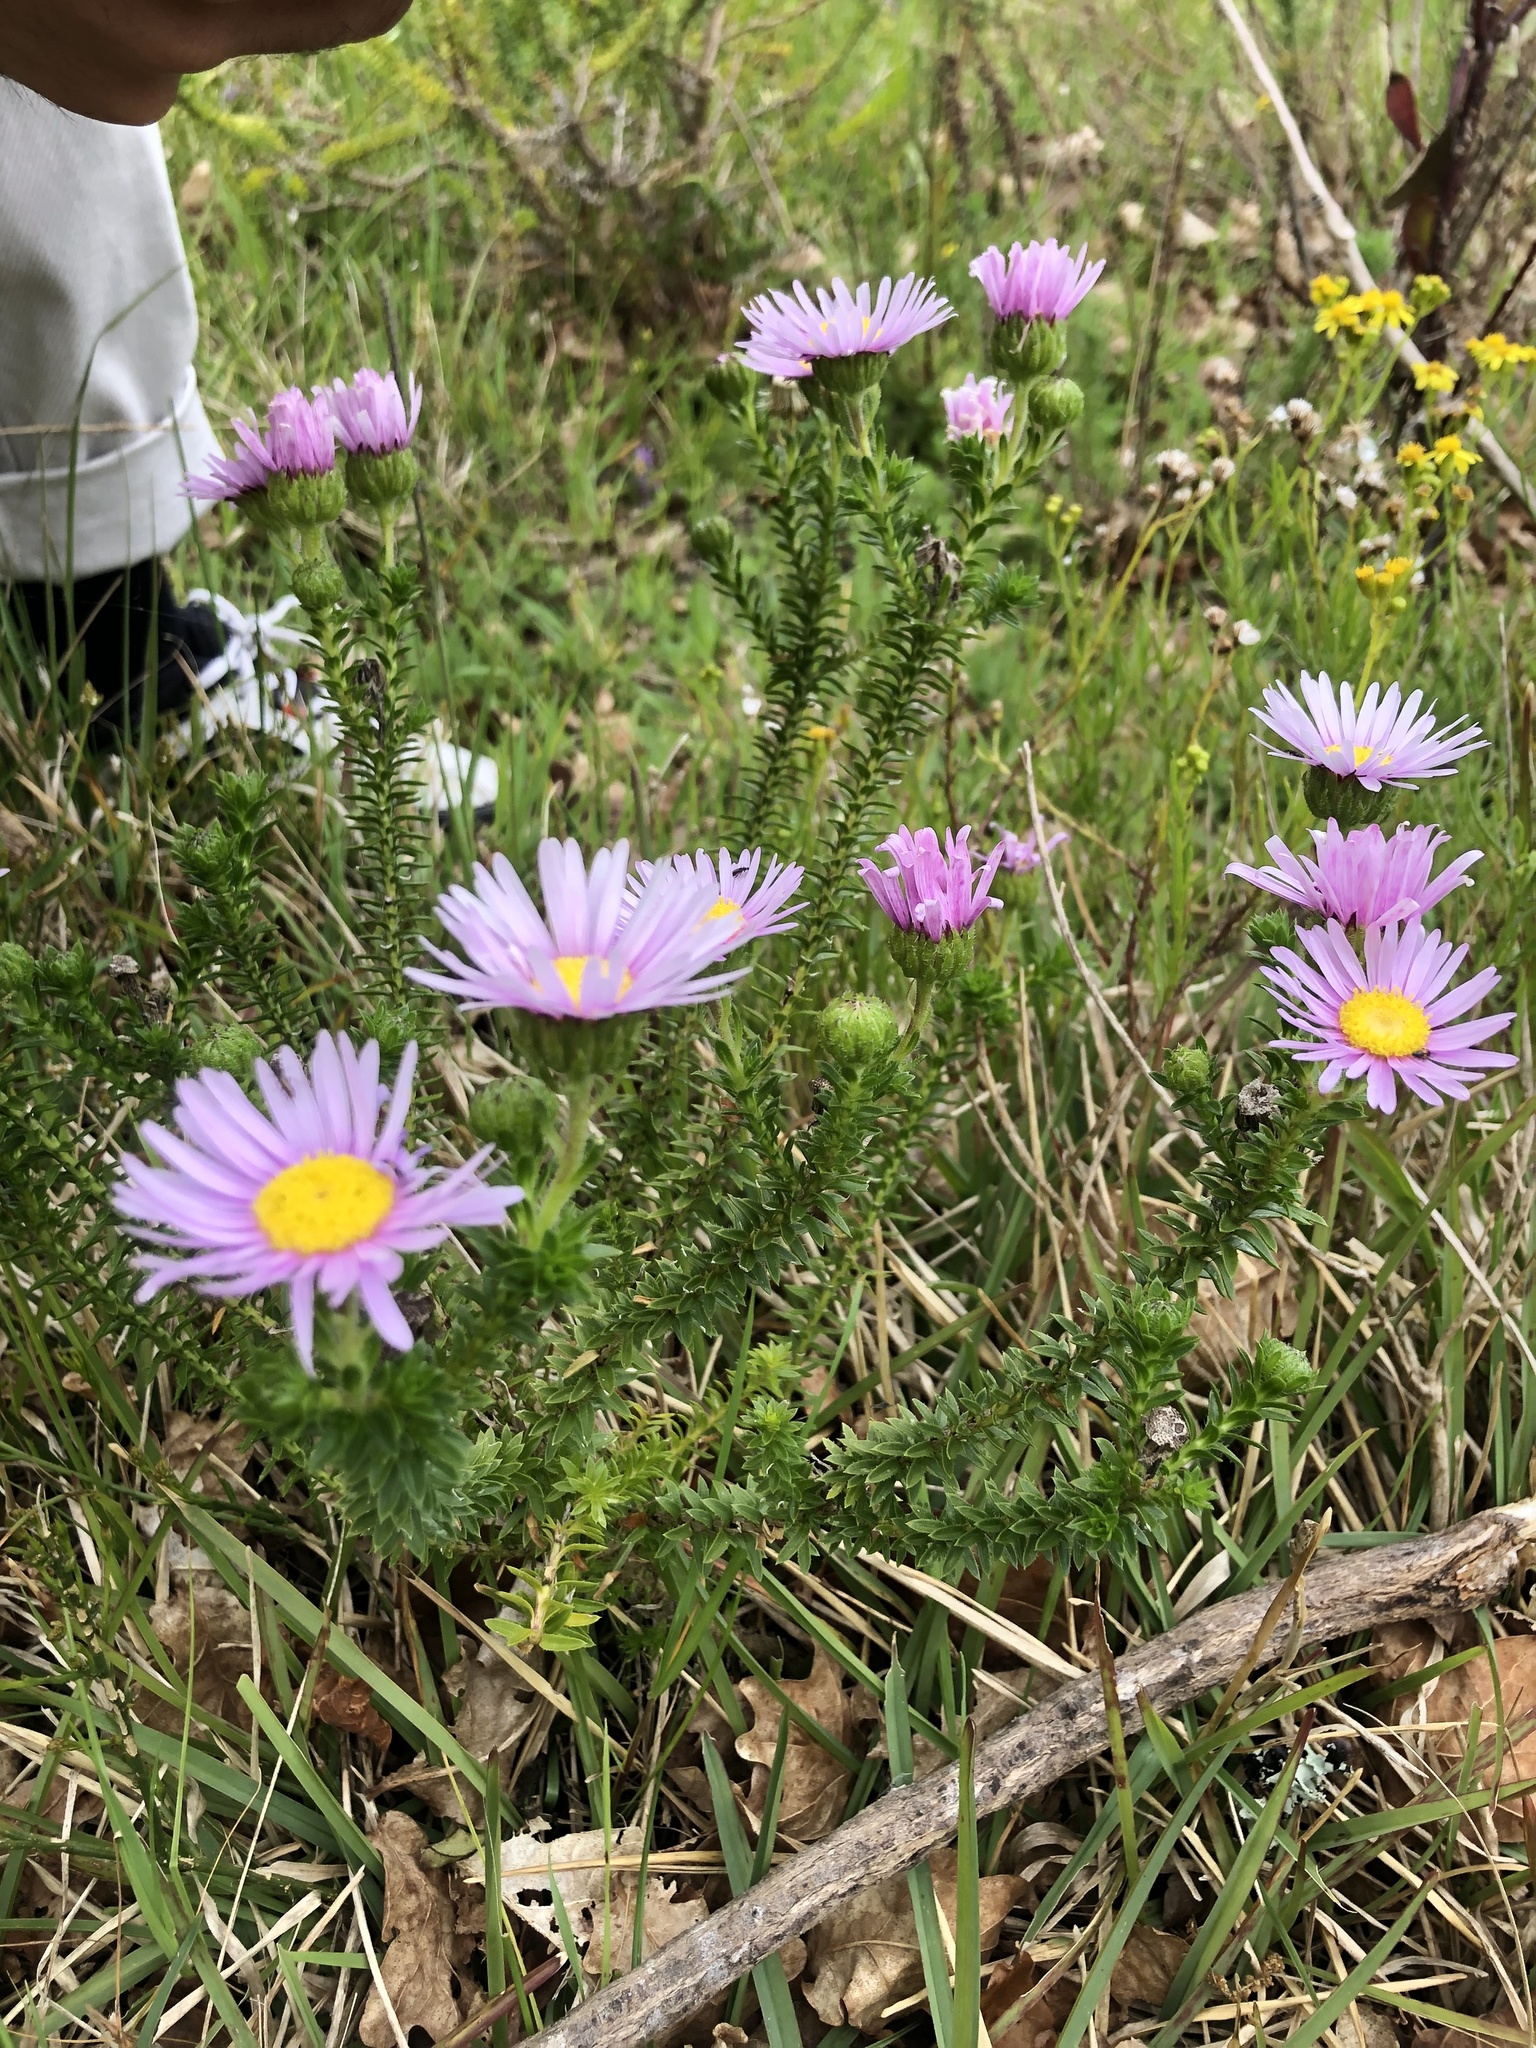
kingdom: Plantae
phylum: Tracheophyta
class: Magnoliopsida
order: Asterales
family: Asteraceae
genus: Felicia
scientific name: Felicia echinata
